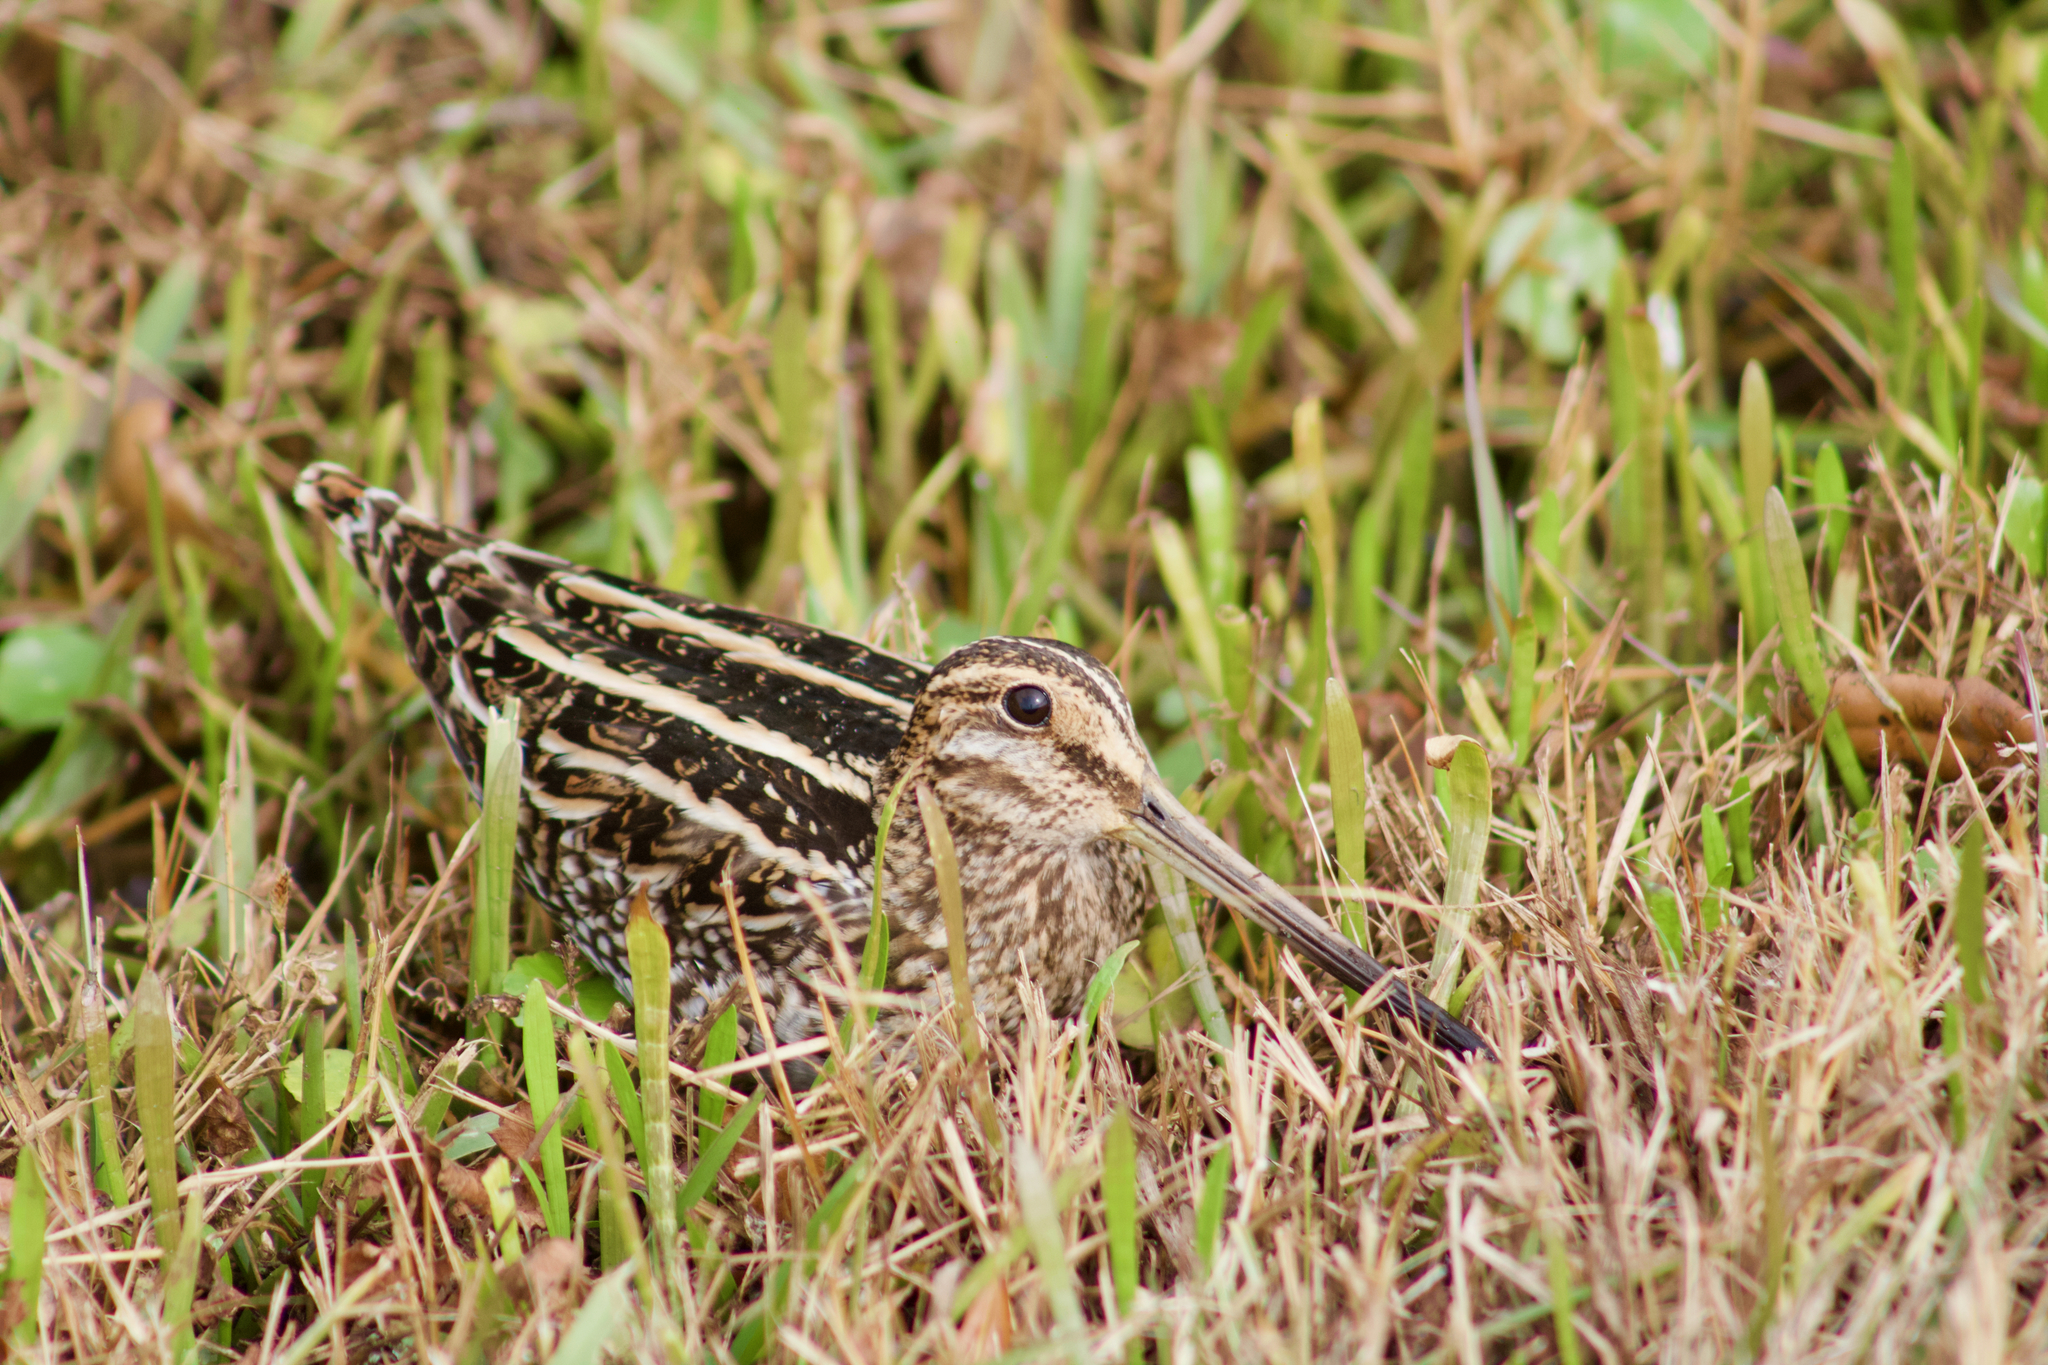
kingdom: Animalia
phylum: Chordata
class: Aves
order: Charadriiformes
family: Scolopacidae
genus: Gallinago
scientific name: Gallinago delicata
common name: Wilson's snipe
